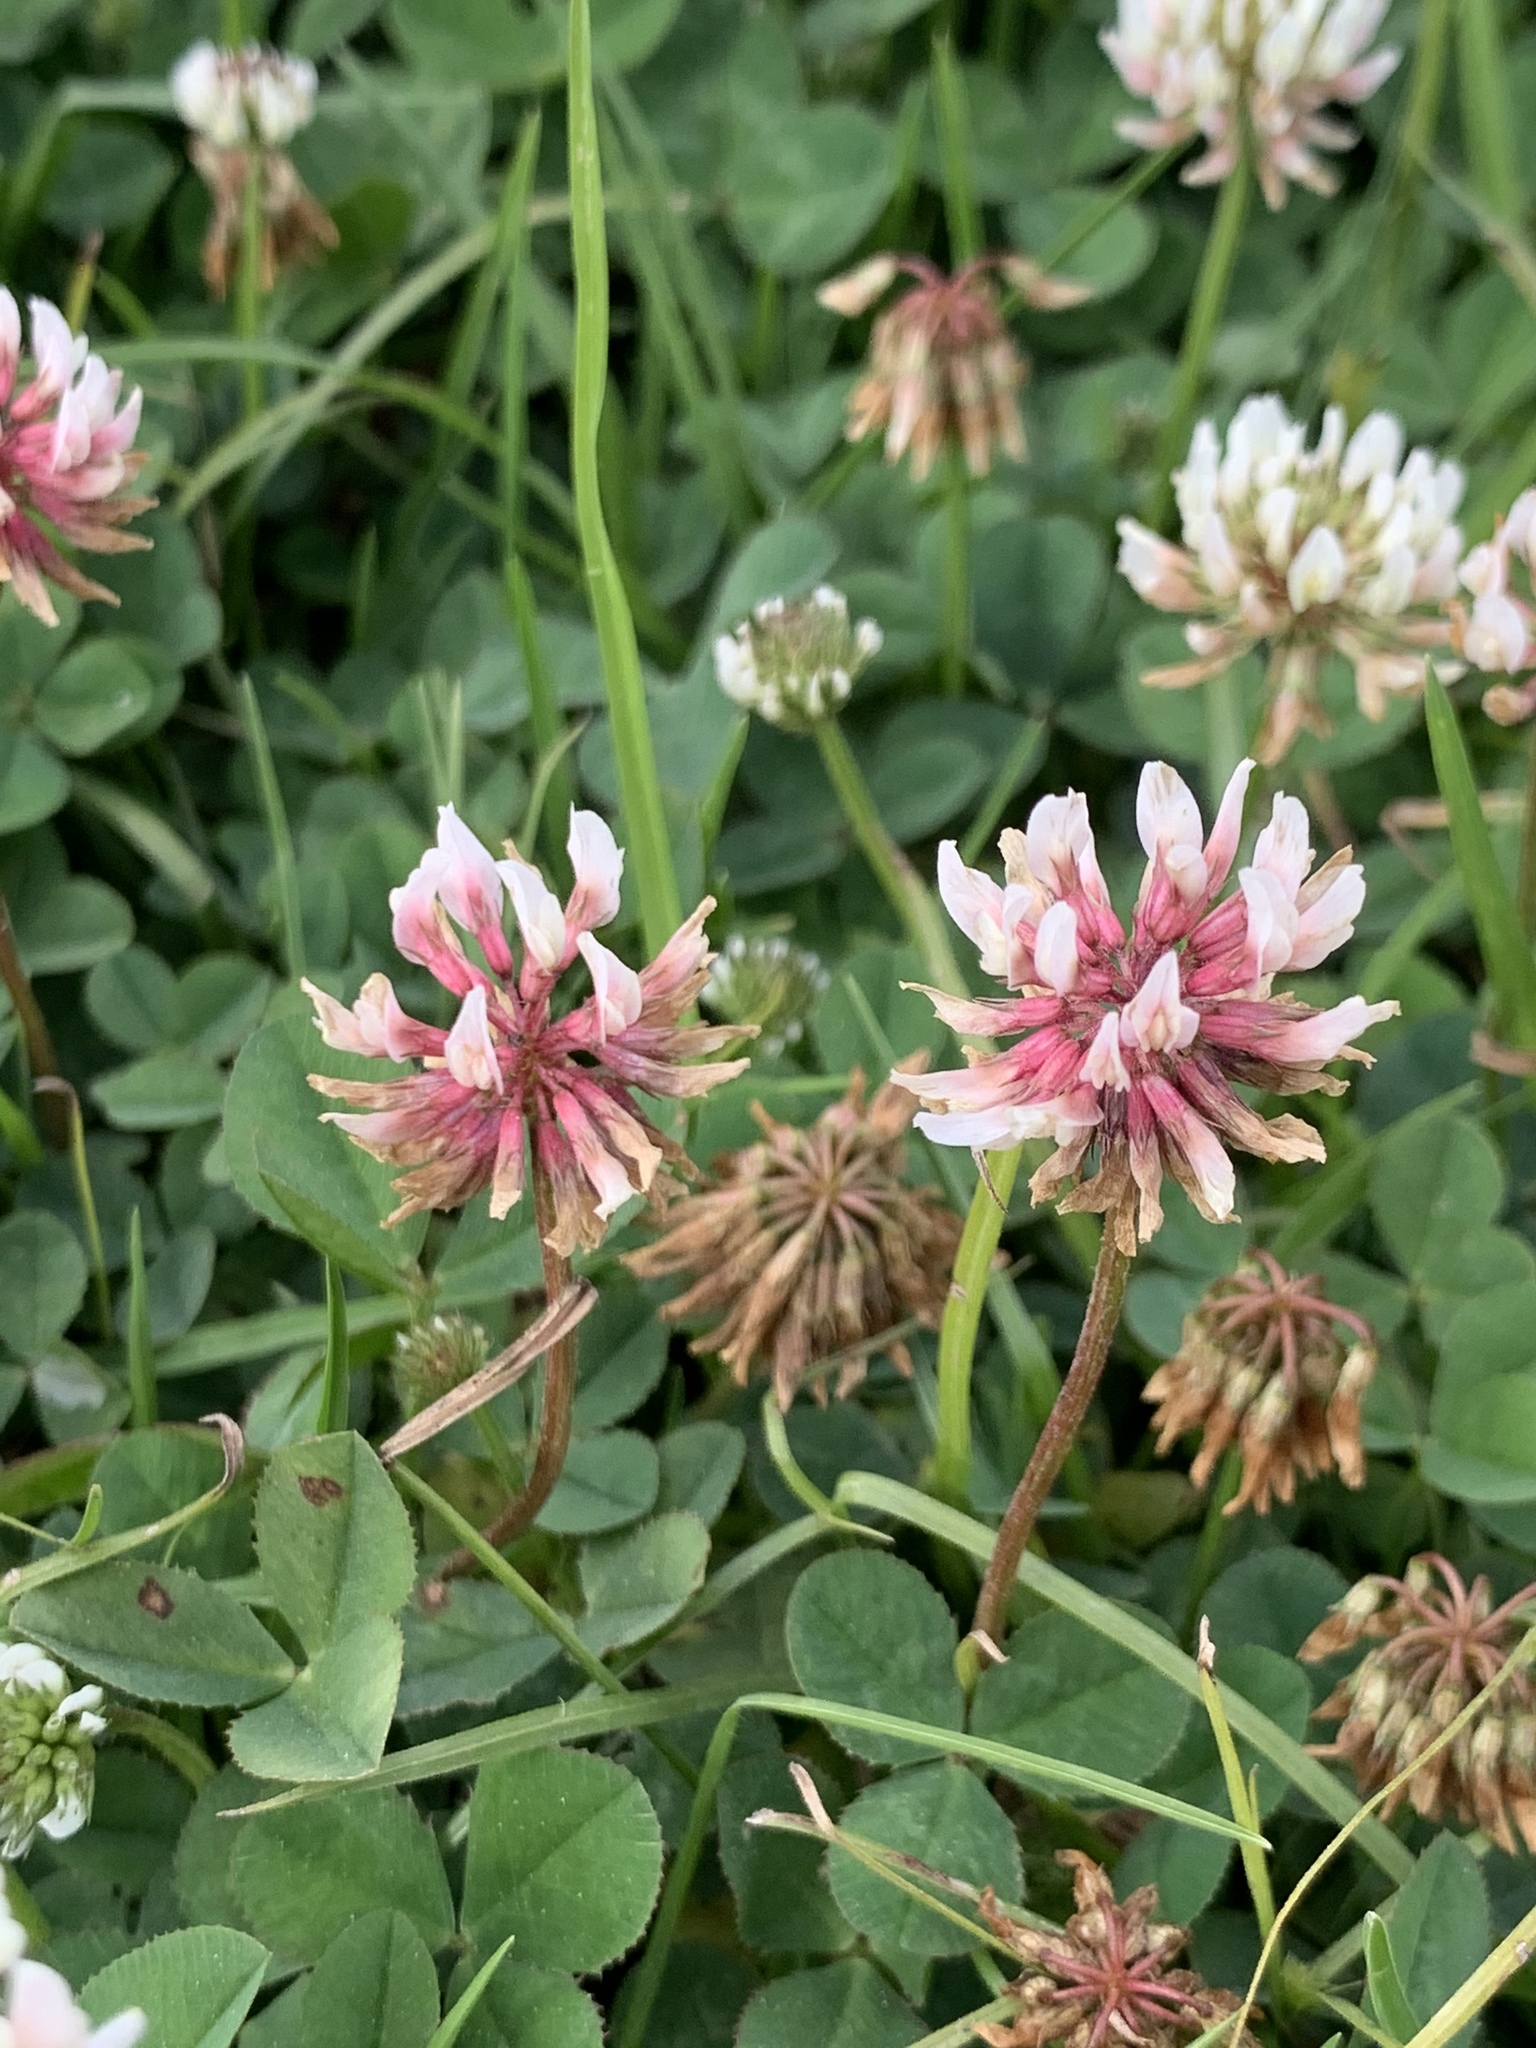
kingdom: Plantae
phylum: Tracheophyta
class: Magnoliopsida
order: Fabales
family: Fabaceae
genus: Trifolium
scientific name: Trifolium repens
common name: White clover
